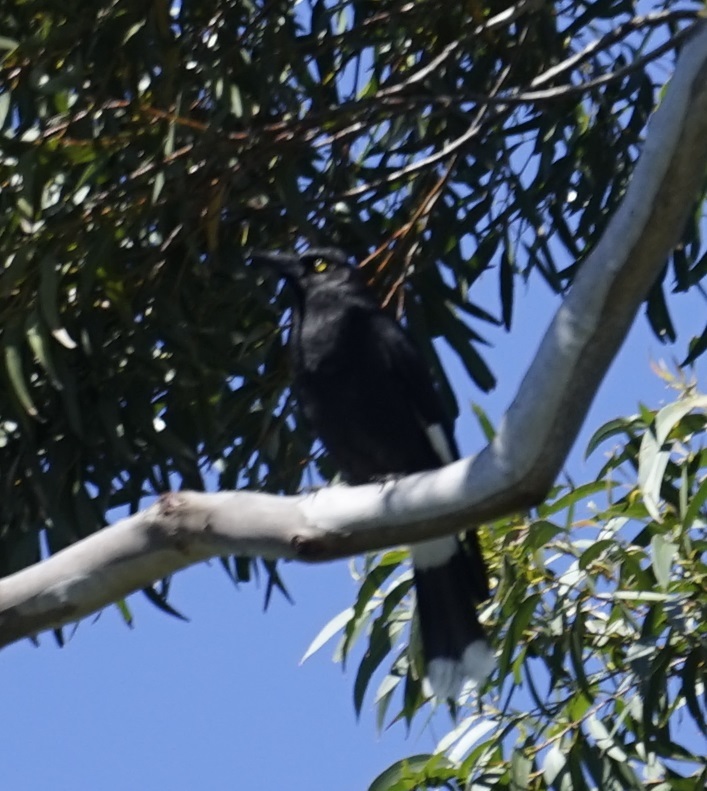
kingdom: Animalia
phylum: Chordata
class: Aves
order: Passeriformes
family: Cracticidae
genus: Strepera
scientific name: Strepera graculina
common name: Pied currawong
